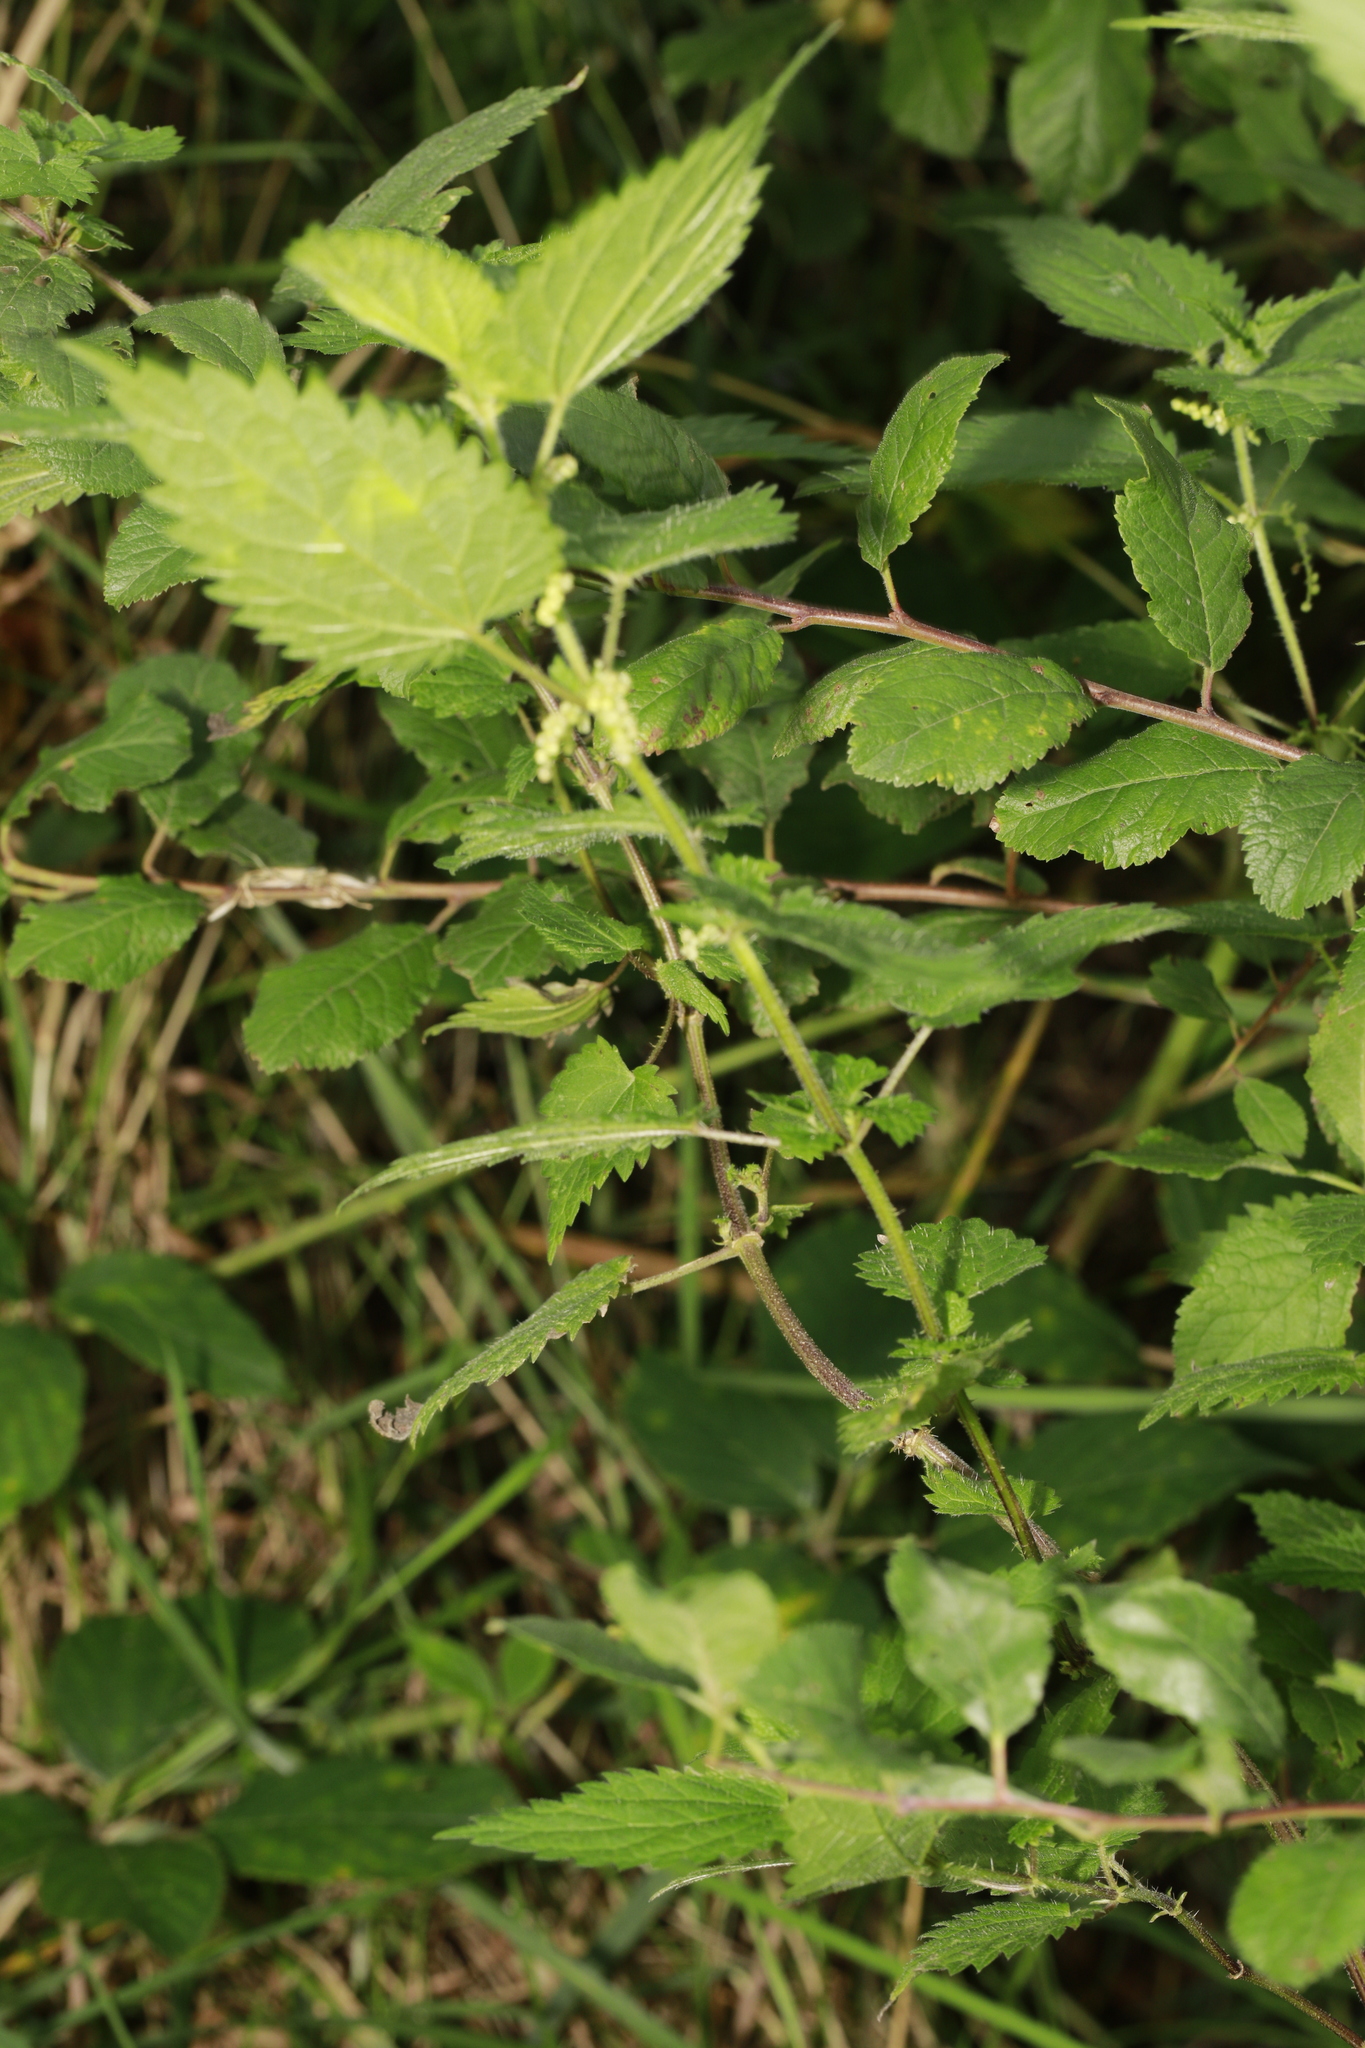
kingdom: Plantae
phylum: Tracheophyta
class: Magnoliopsida
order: Rosales
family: Urticaceae
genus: Urtica
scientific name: Urtica dioica
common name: Common nettle
